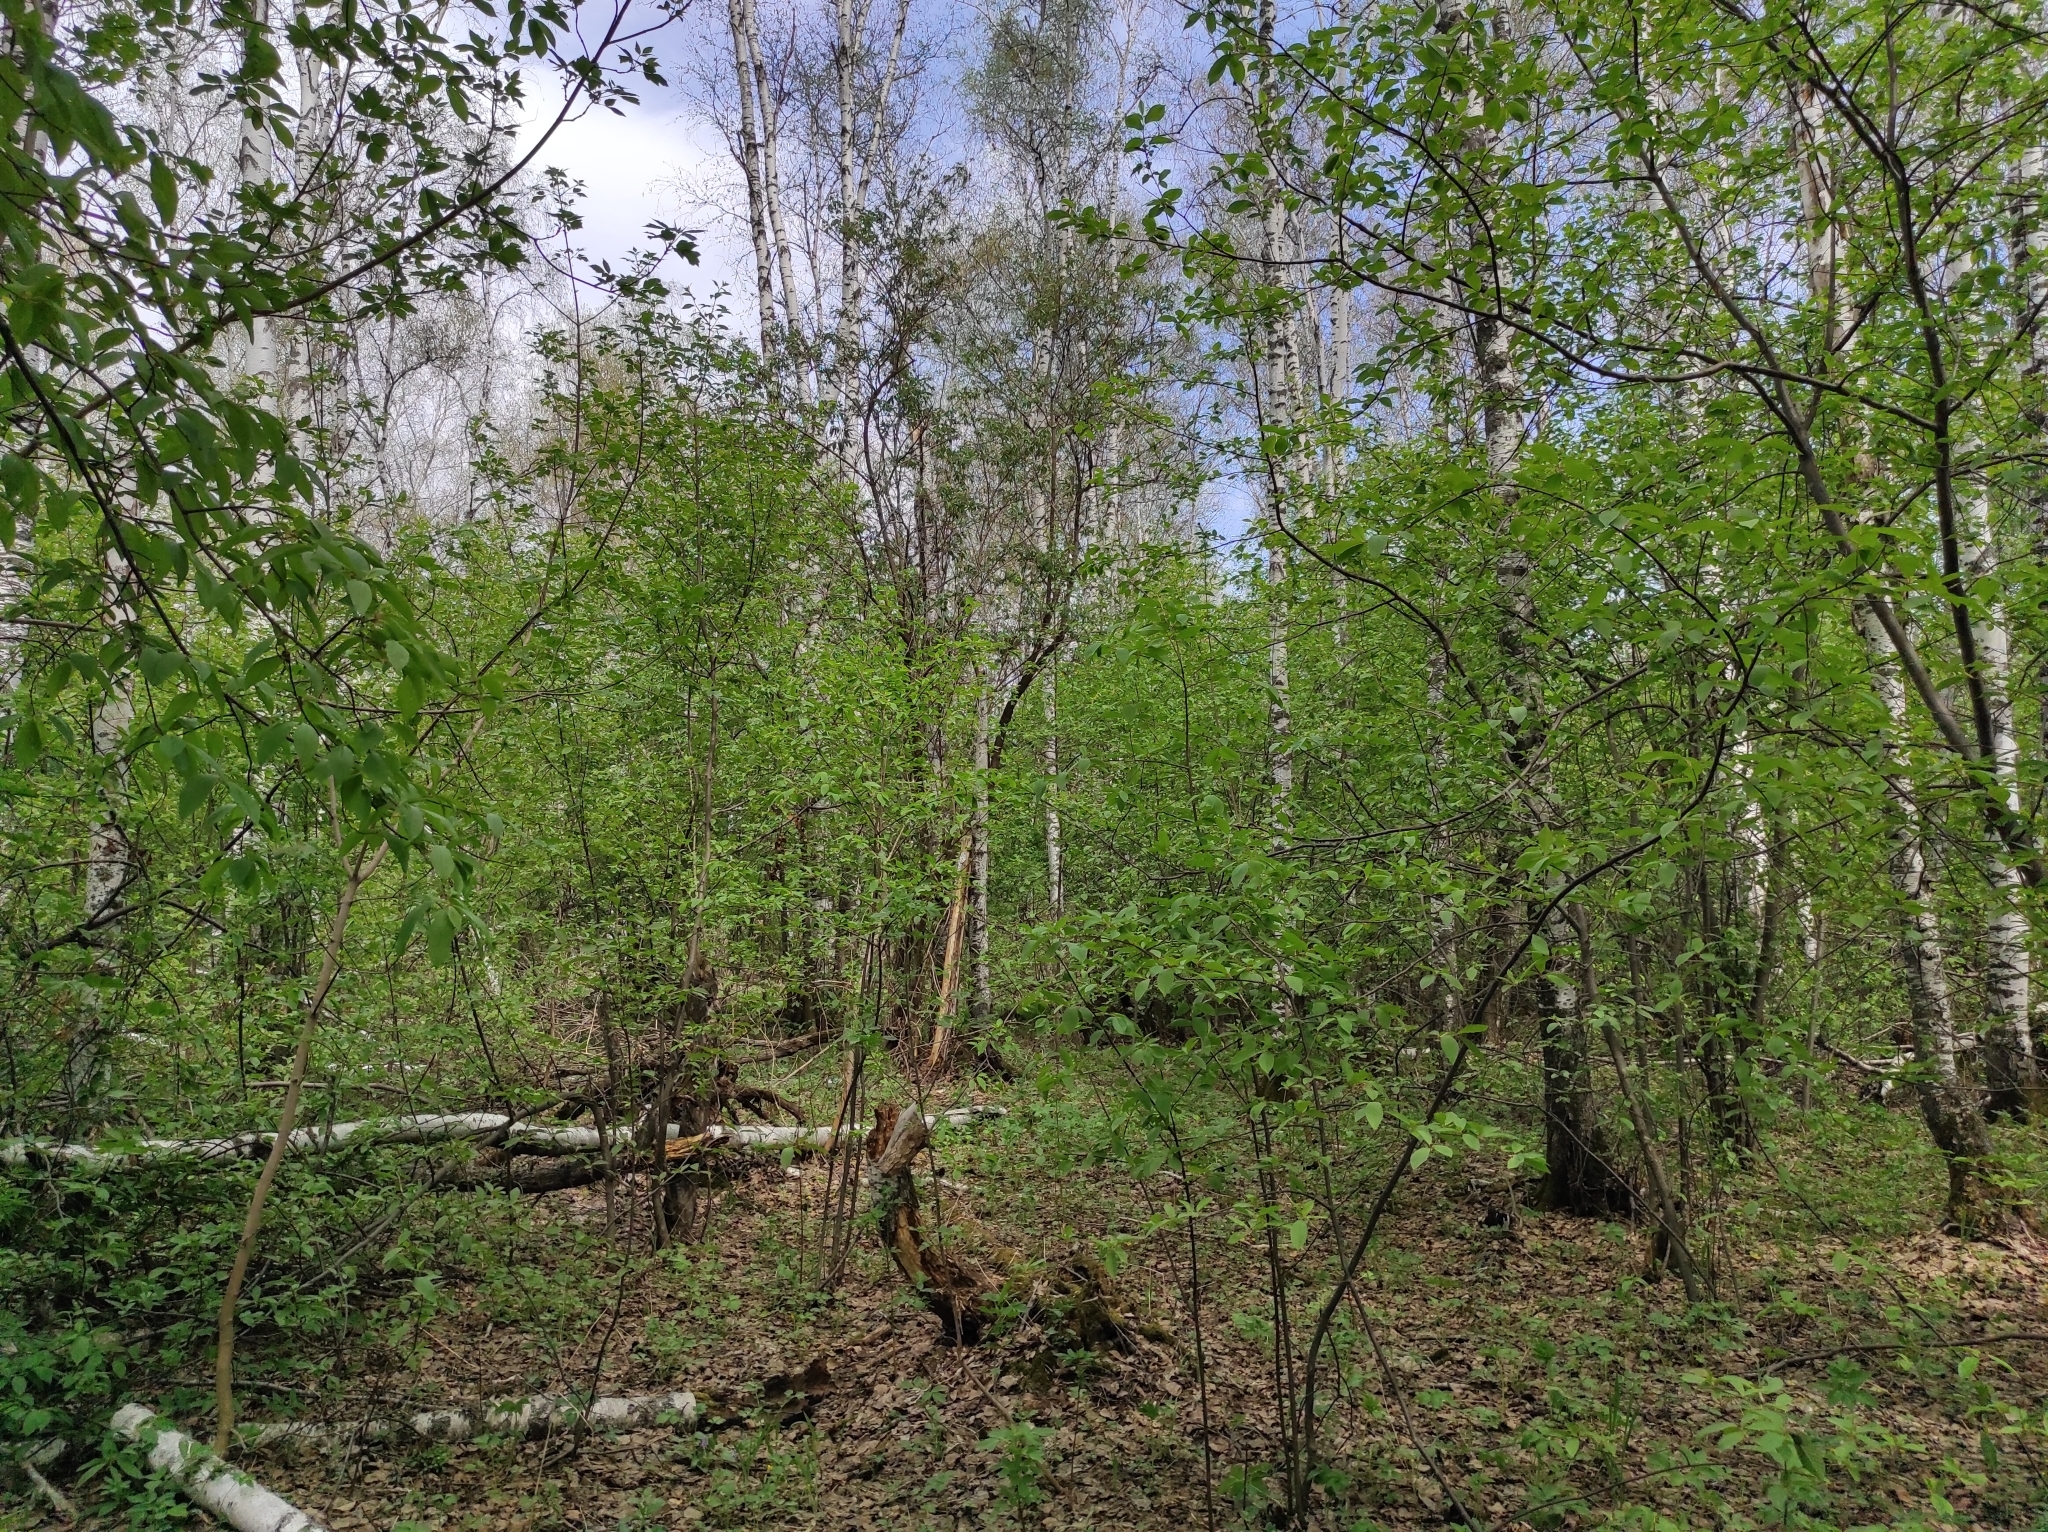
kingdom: Fungi
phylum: Ascomycota
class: Pezizomycetes
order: Pezizales
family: Morchellaceae
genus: Verpa
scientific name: Verpa bohemica
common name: Wrinkled thimble morel
